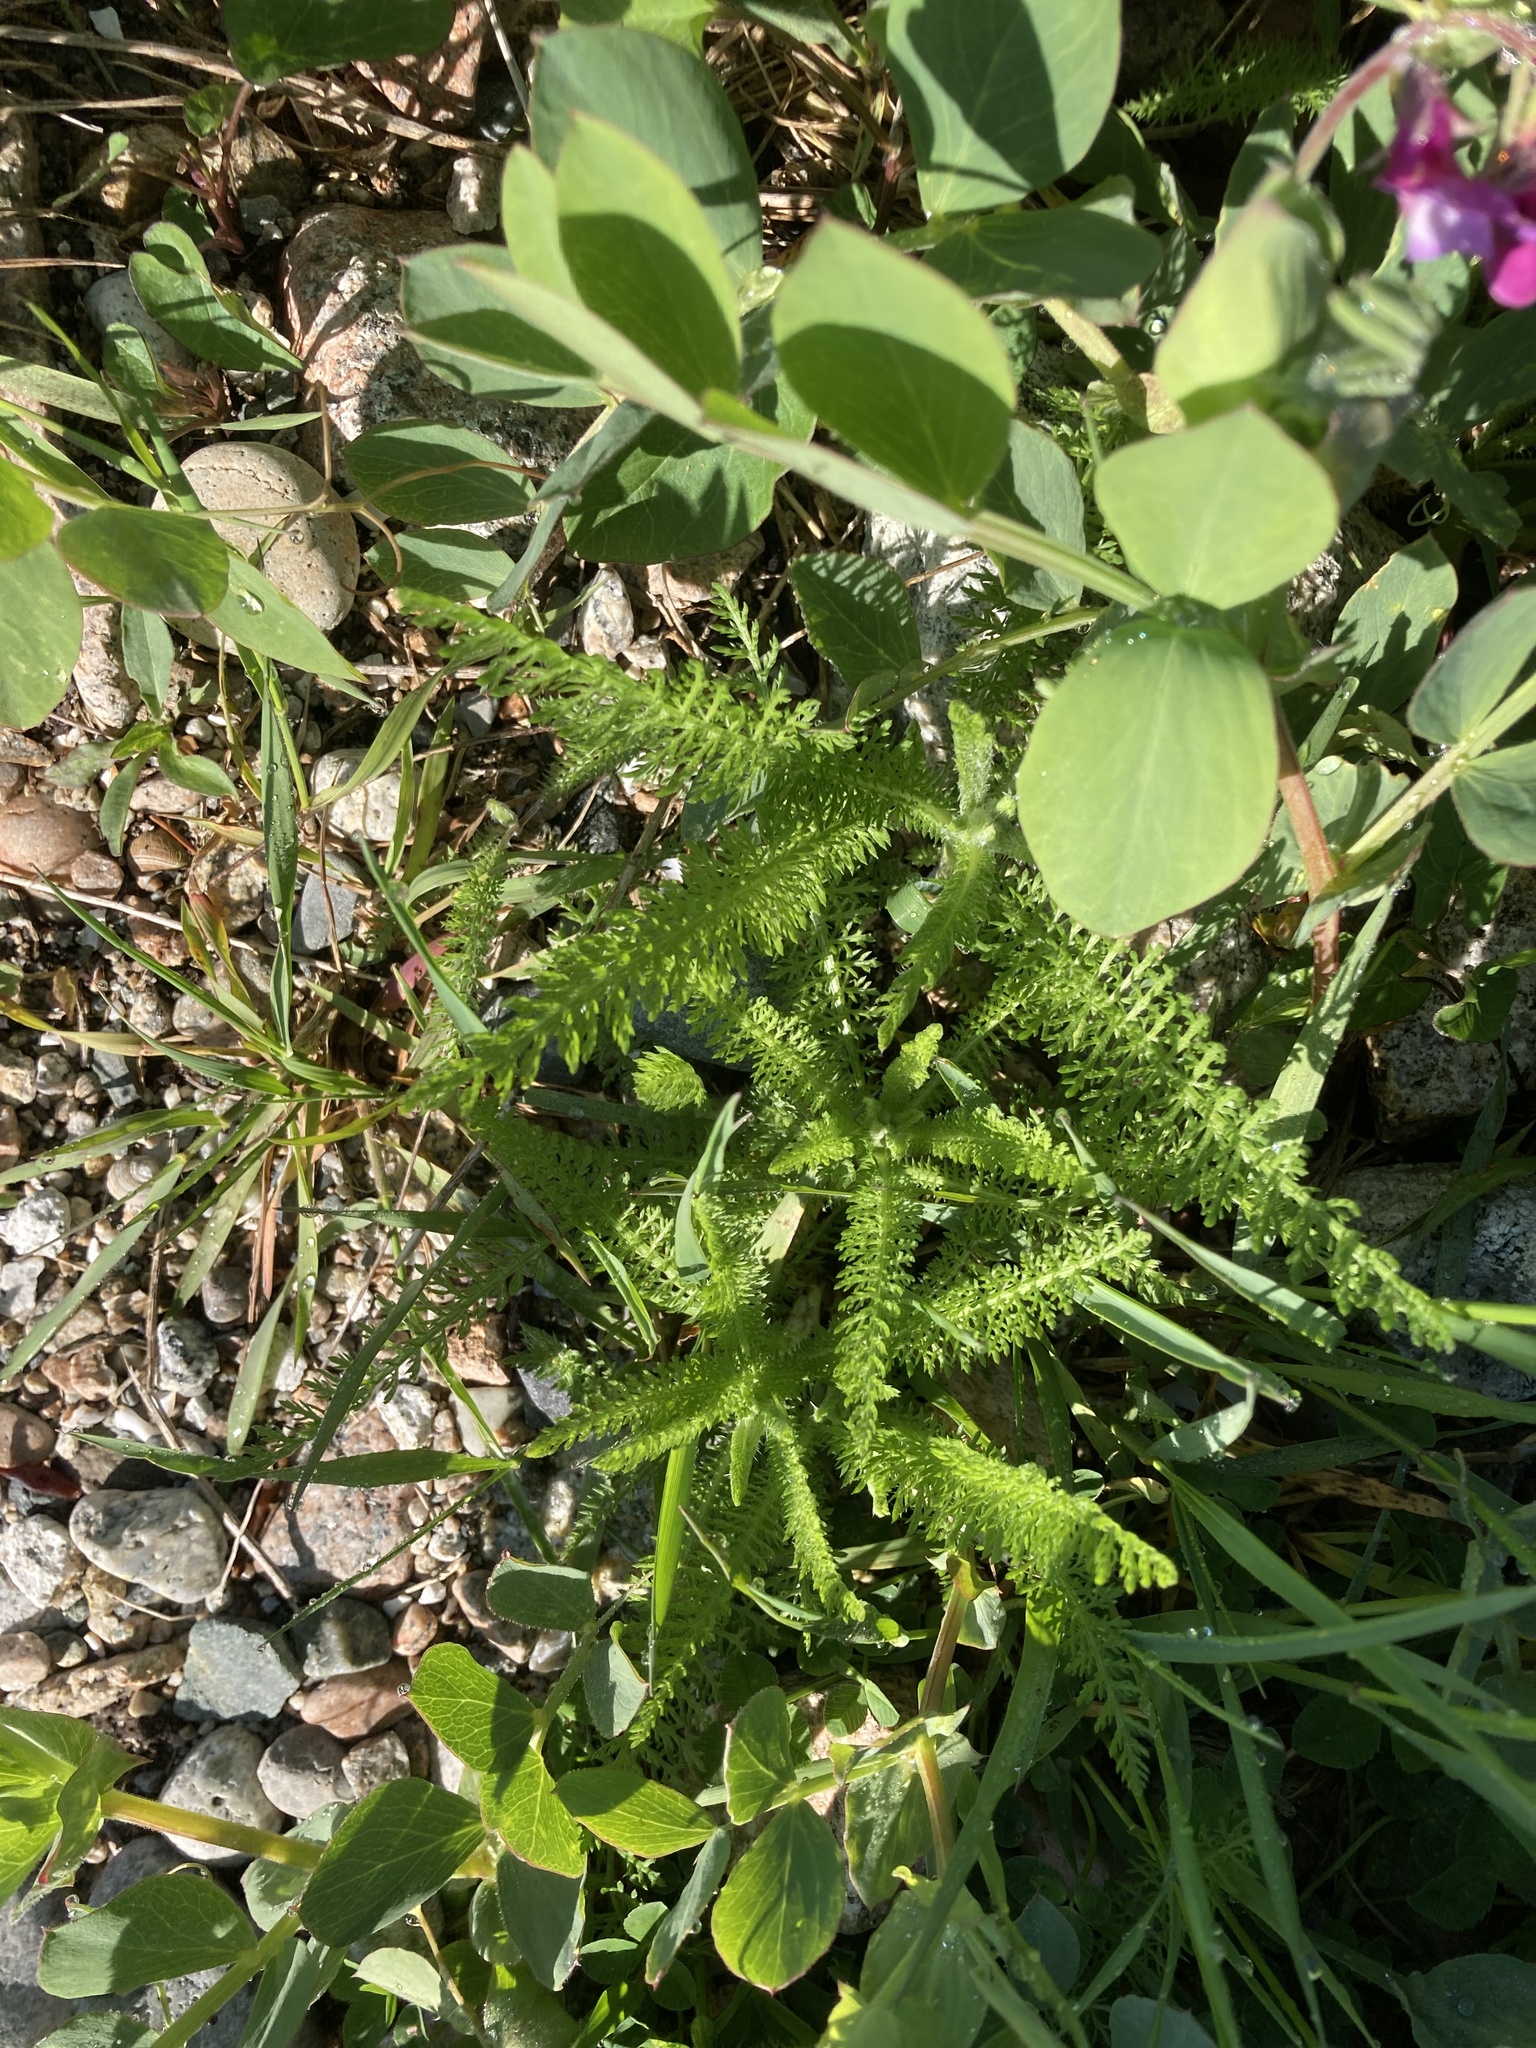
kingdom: Plantae
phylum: Tracheophyta
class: Magnoliopsida
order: Asterales
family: Asteraceae
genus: Achillea
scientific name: Achillea millefolium
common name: Yarrow
